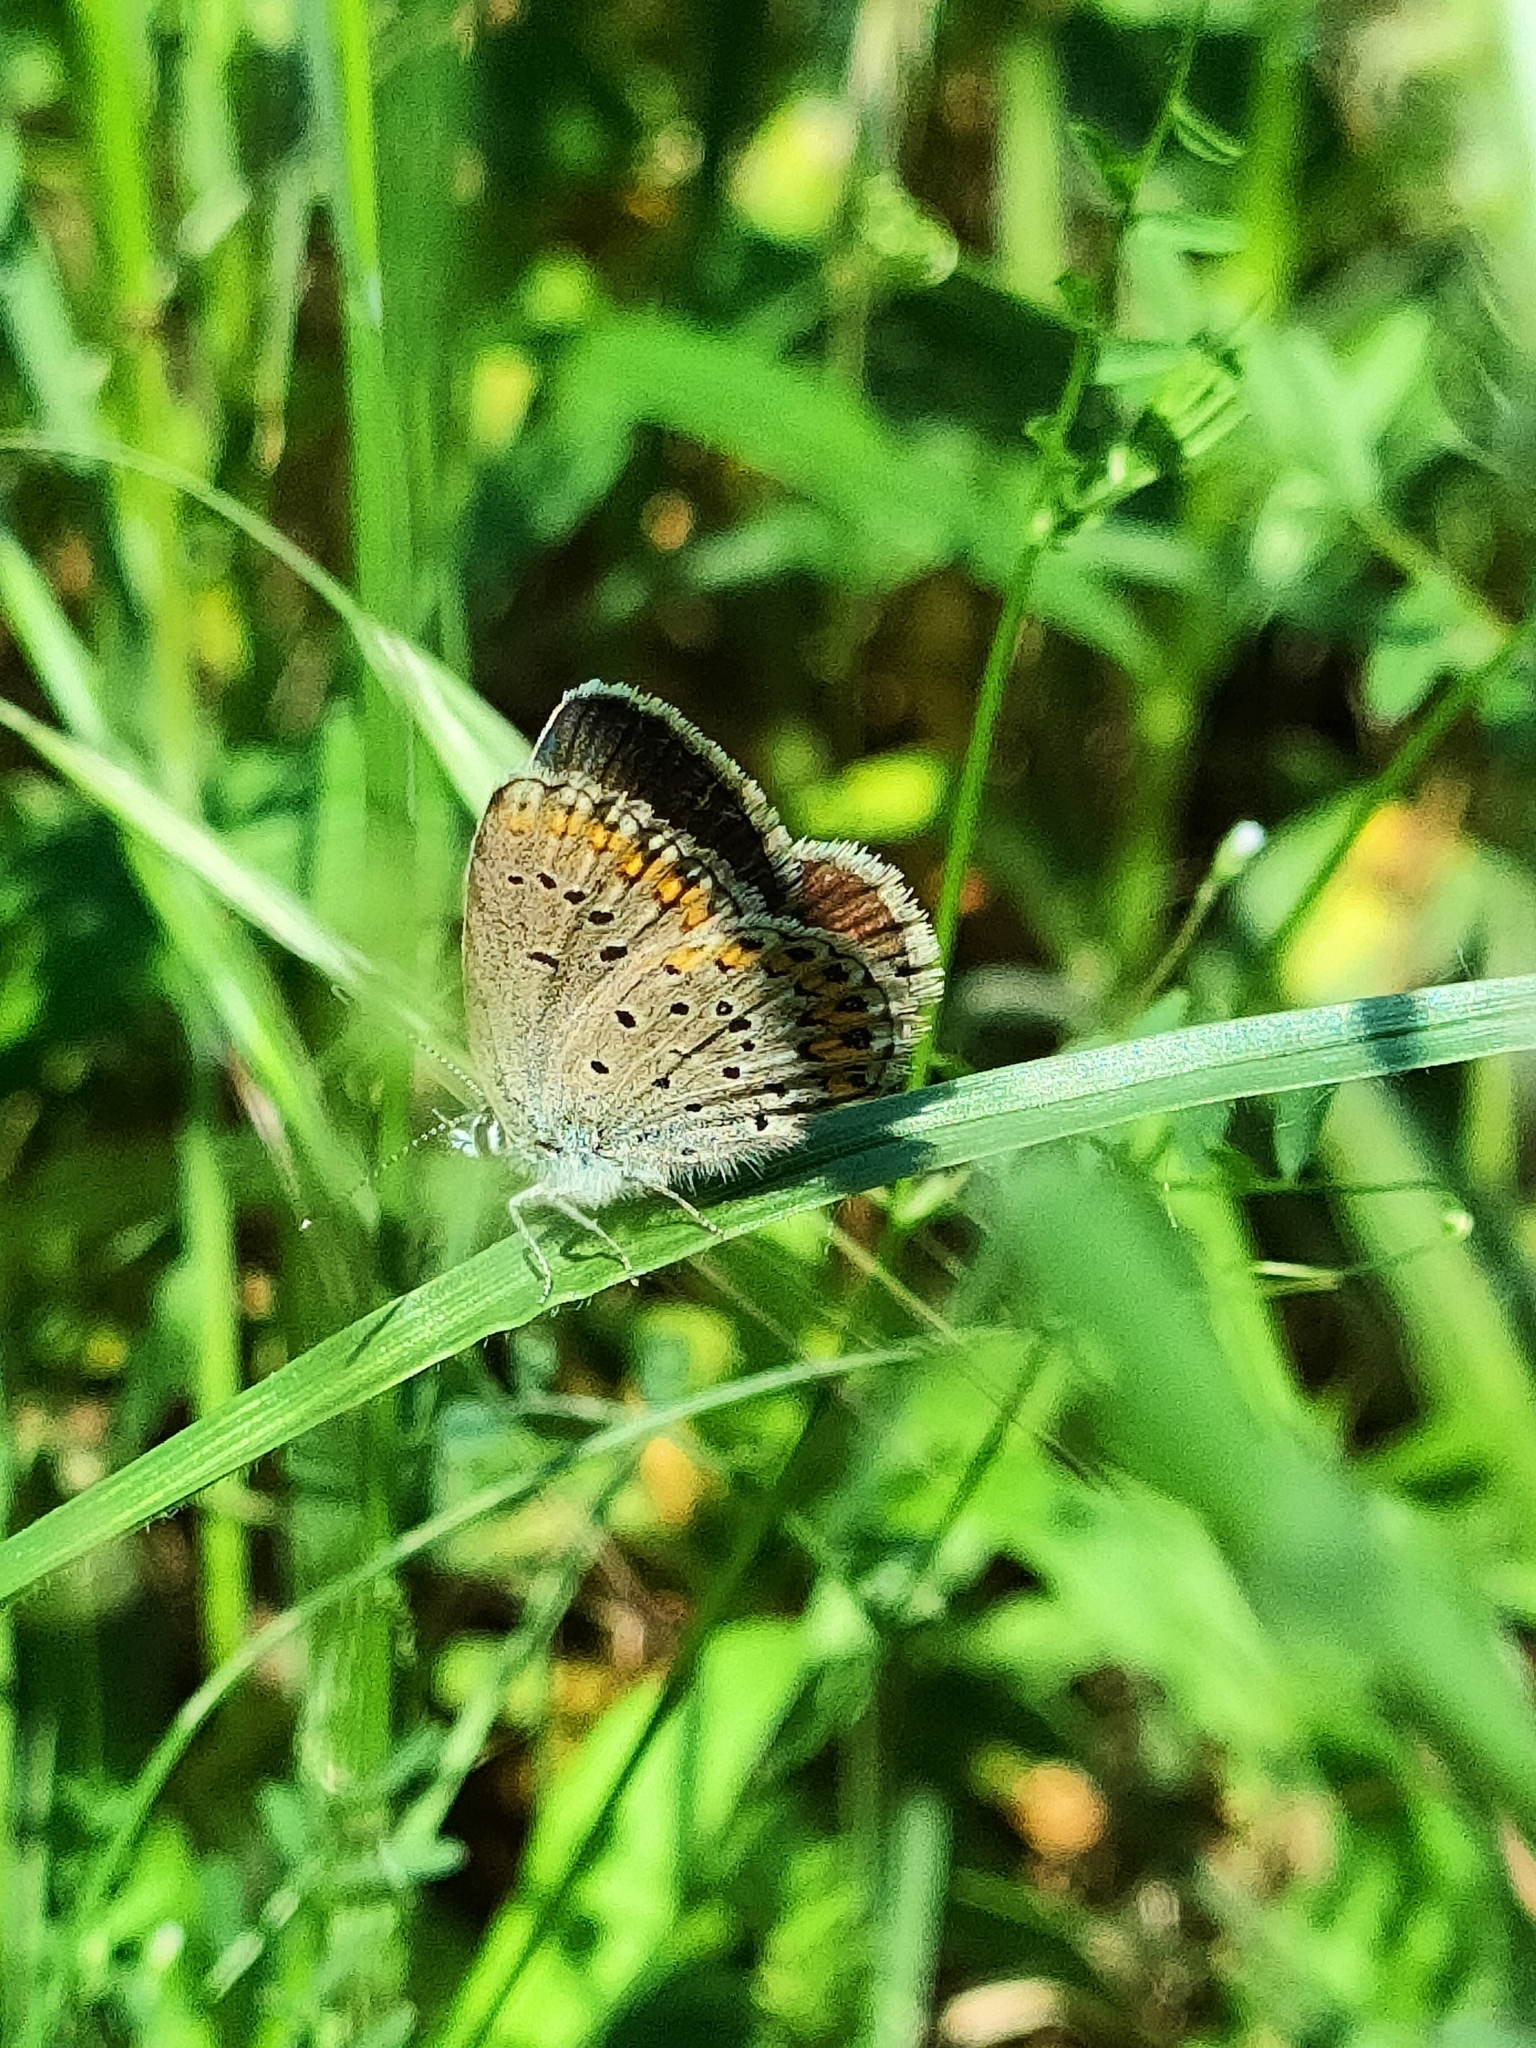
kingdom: Animalia
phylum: Arthropoda
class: Insecta
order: Lepidoptera
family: Lycaenidae
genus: Plebejus
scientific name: Plebejus argyrognomon
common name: Reverdin's blue
